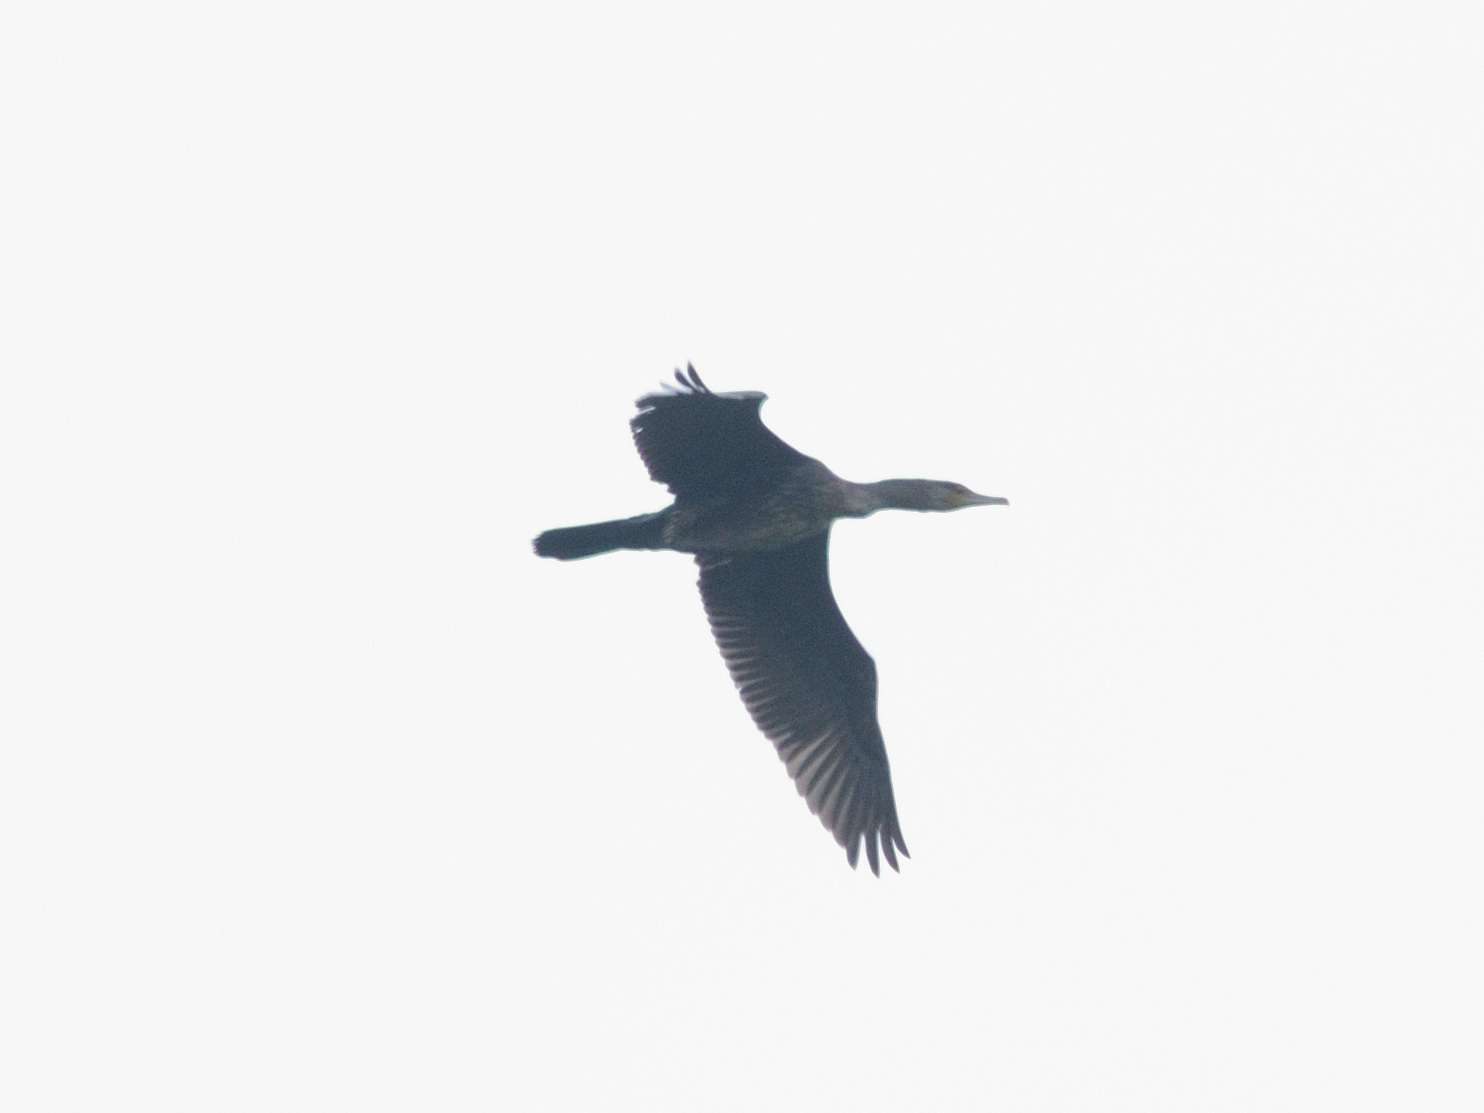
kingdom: Animalia
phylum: Chordata
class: Aves
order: Suliformes
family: Phalacrocoracidae
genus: Phalacrocorax
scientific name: Phalacrocorax carbo
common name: Great cormorant
